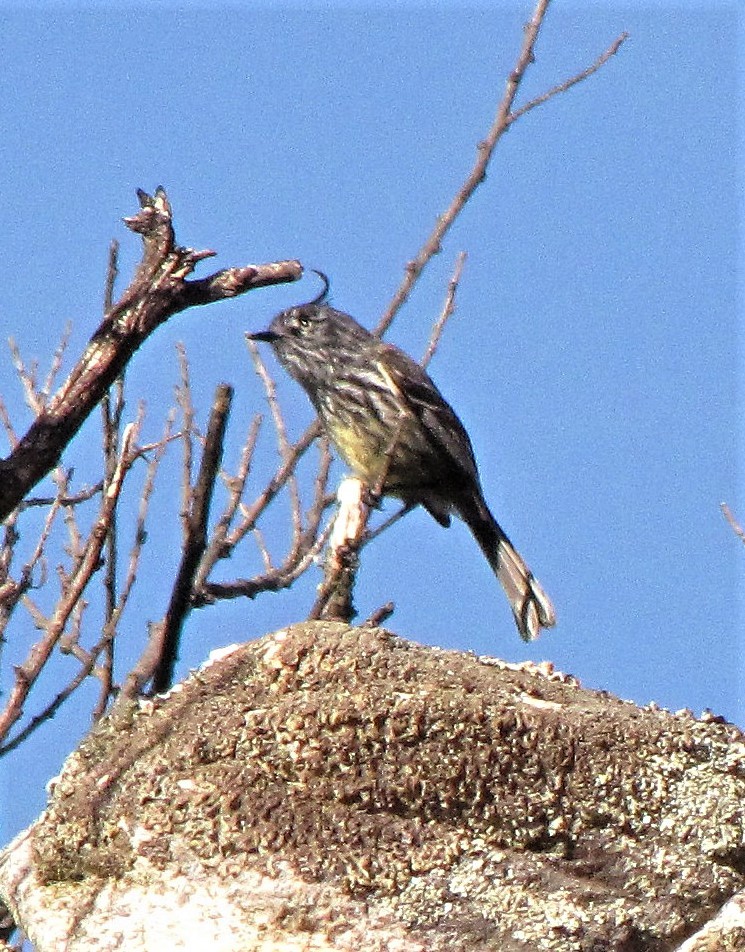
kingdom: Animalia
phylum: Chordata
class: Aves
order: Passeriformes
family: Tyrannidae
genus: Anairetes
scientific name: Anairetes parulus
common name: Tufted tit-tyrant
